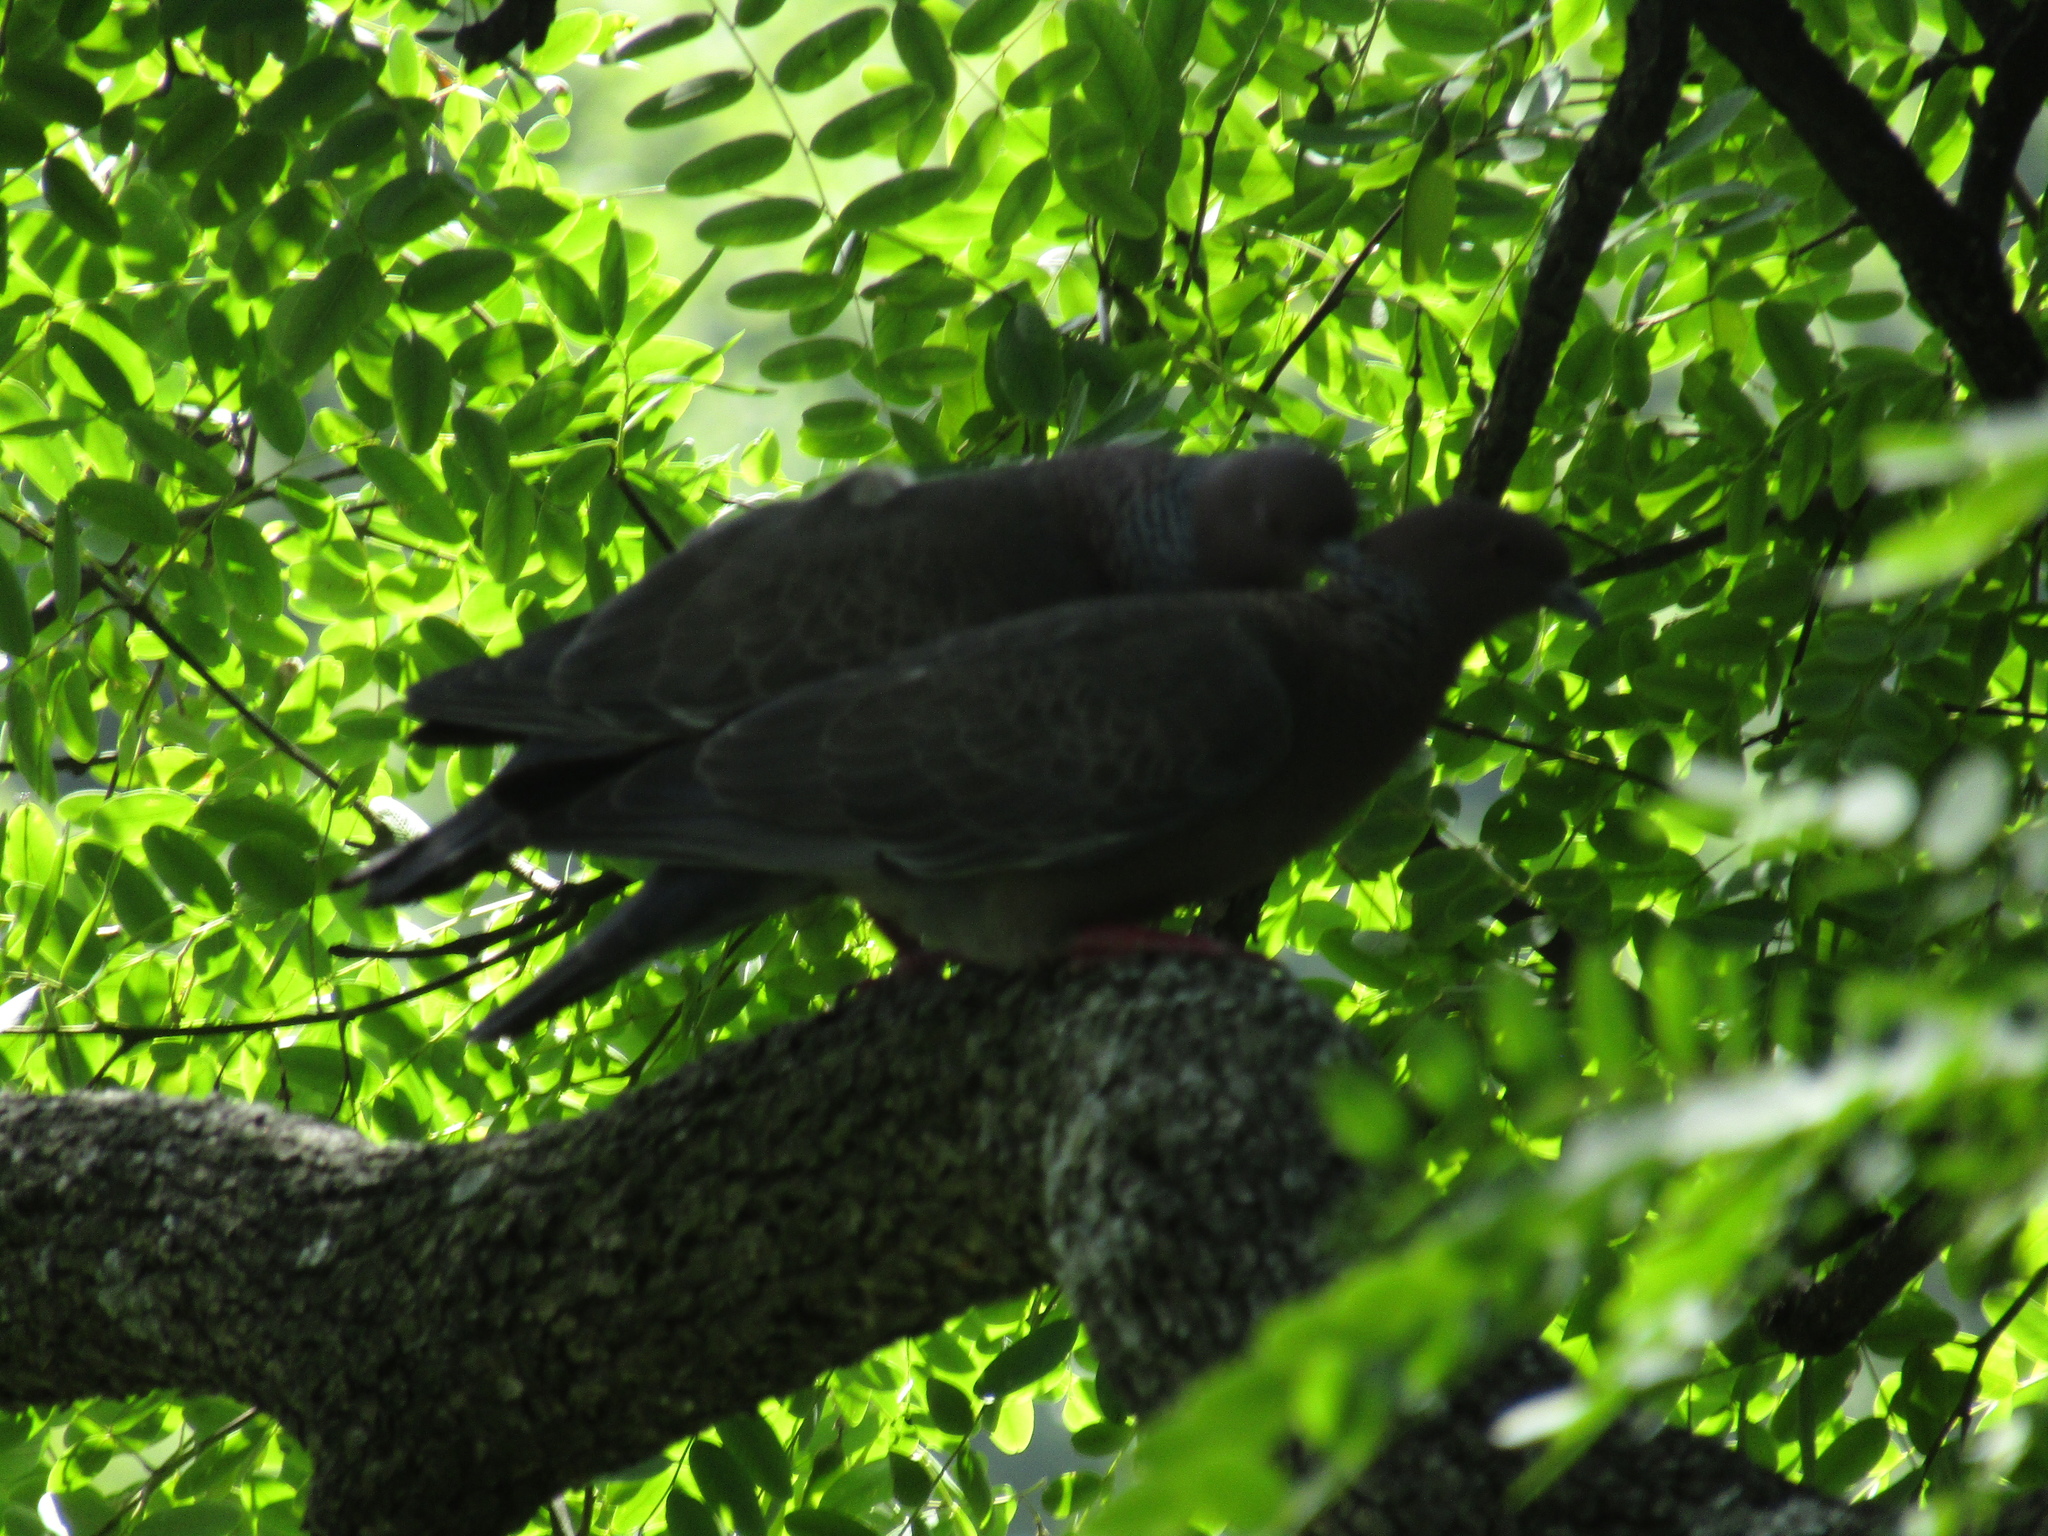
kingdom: Animalia
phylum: Chordata
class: Aves
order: Columbiformes
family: Columbidae
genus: Patagioenas
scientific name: Patagioenas picazuro
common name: Picazuro pigeon
